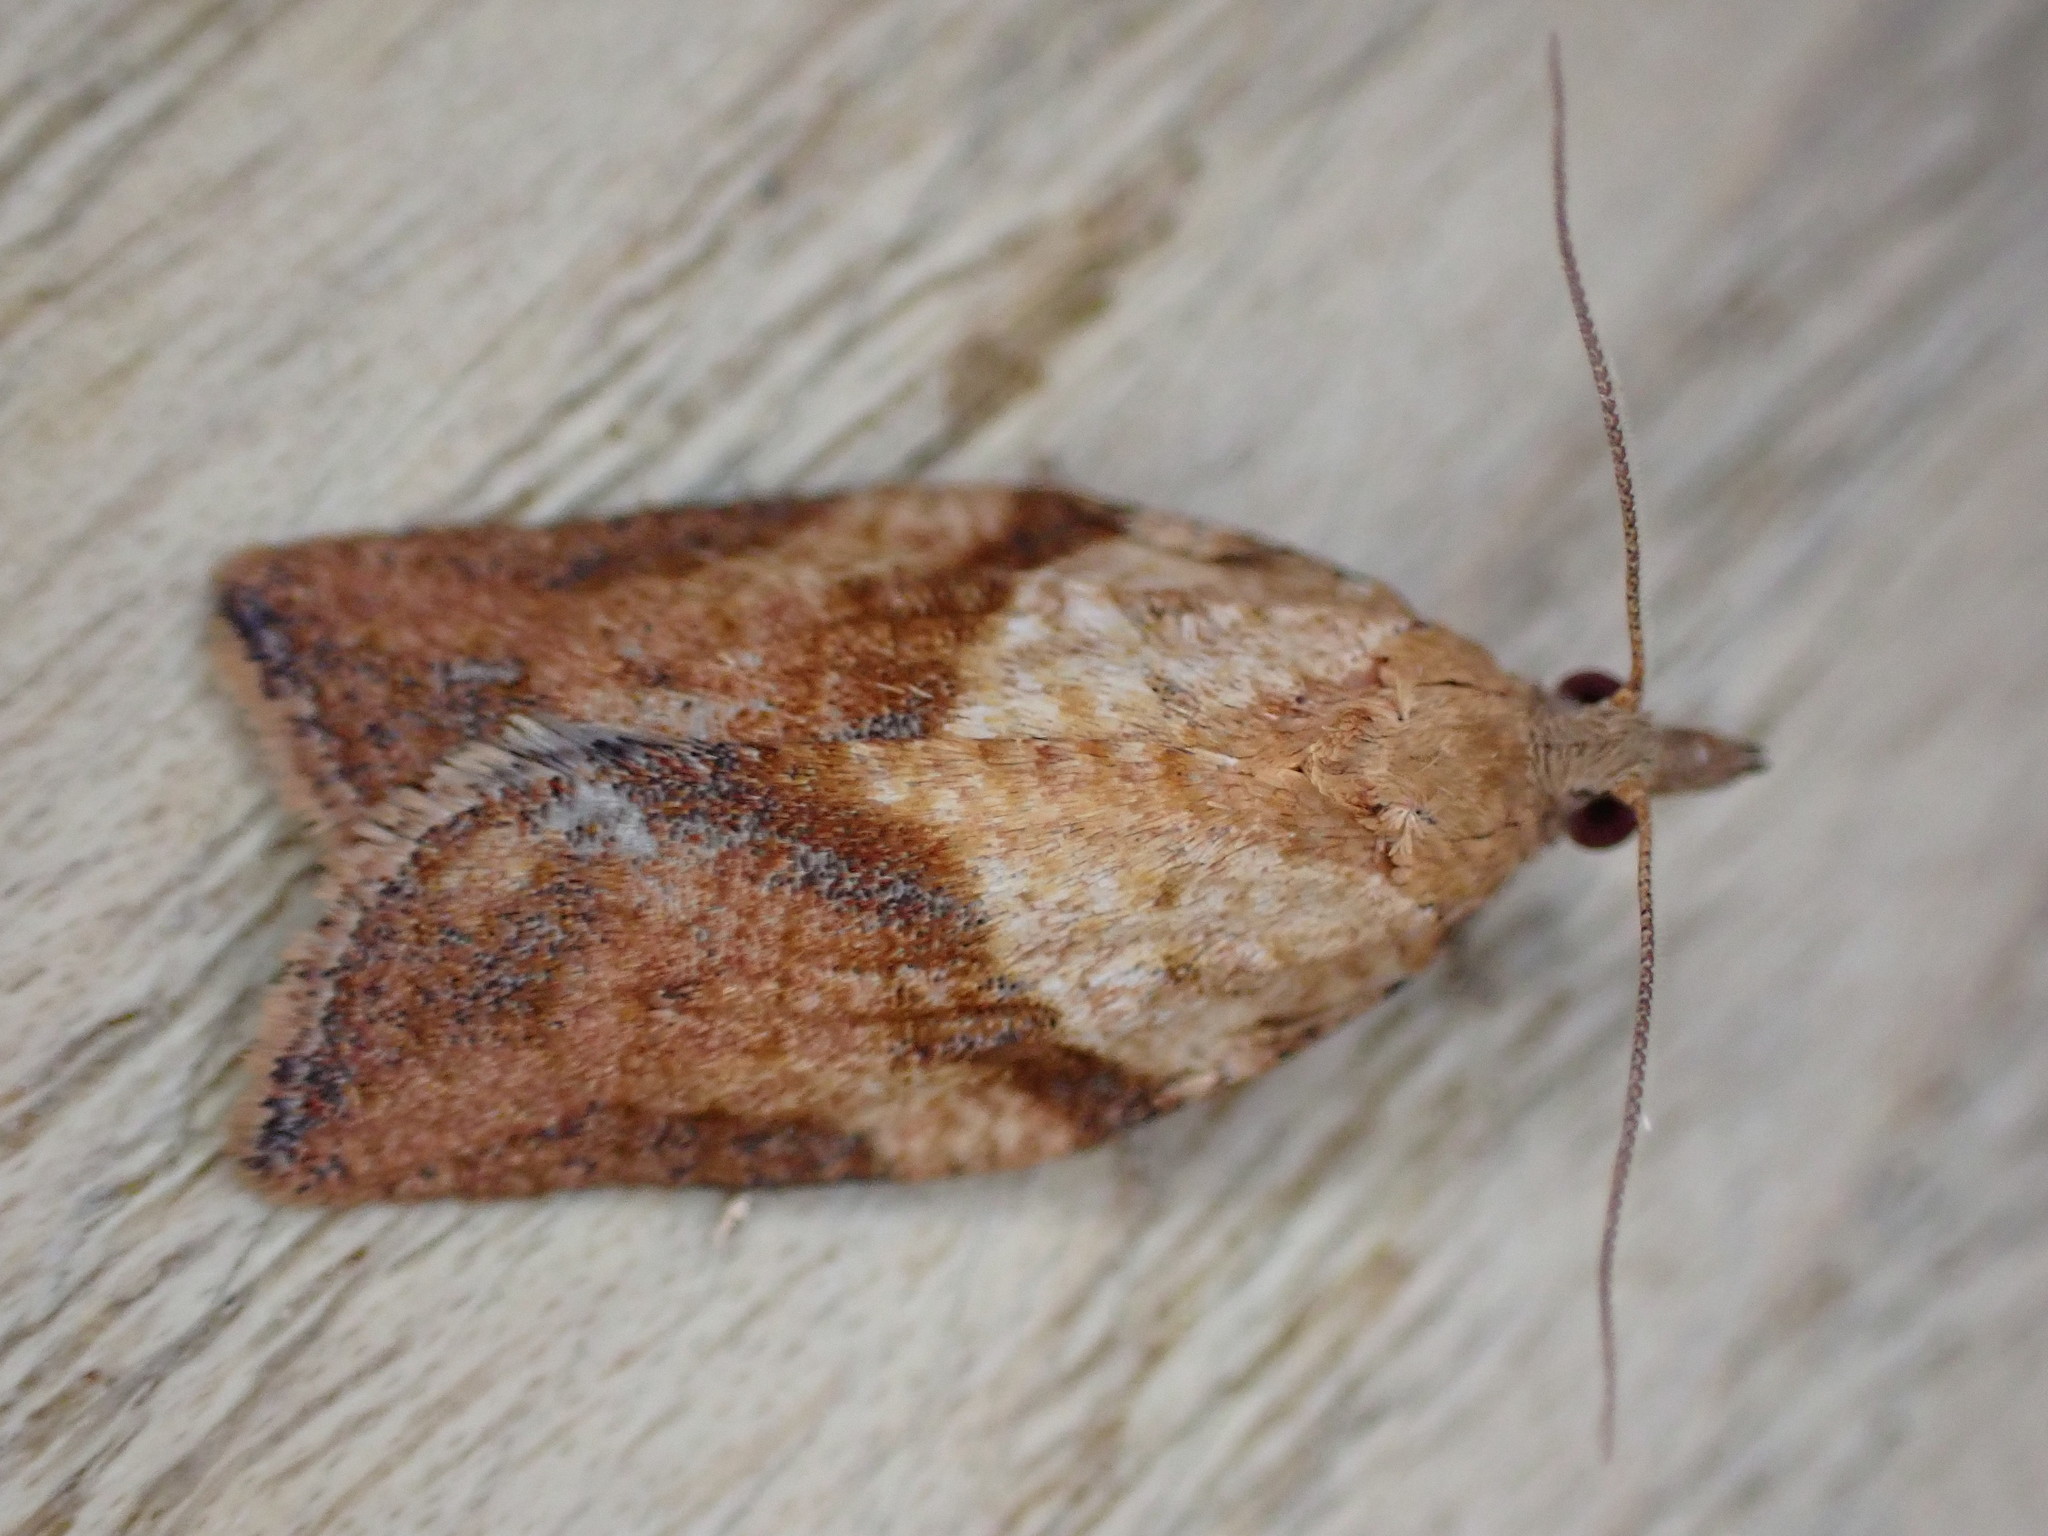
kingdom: Animalia
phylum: Arthropoda
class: Insecta
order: Lepidoptera
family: Tortricidae
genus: Epiphyas
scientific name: Epiphyas postvittana
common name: Light brown apple moth
